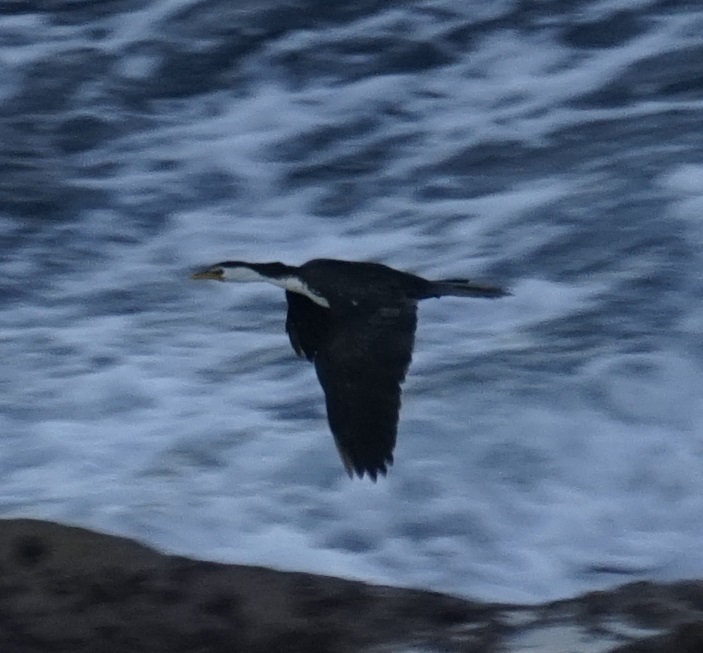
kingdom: Animalia
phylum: Chordata
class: Aves
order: Suliformes
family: Phalacrocoracidae
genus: Microcarbo
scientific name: Microcarbo melanoleucos
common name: Little pied cormorant
